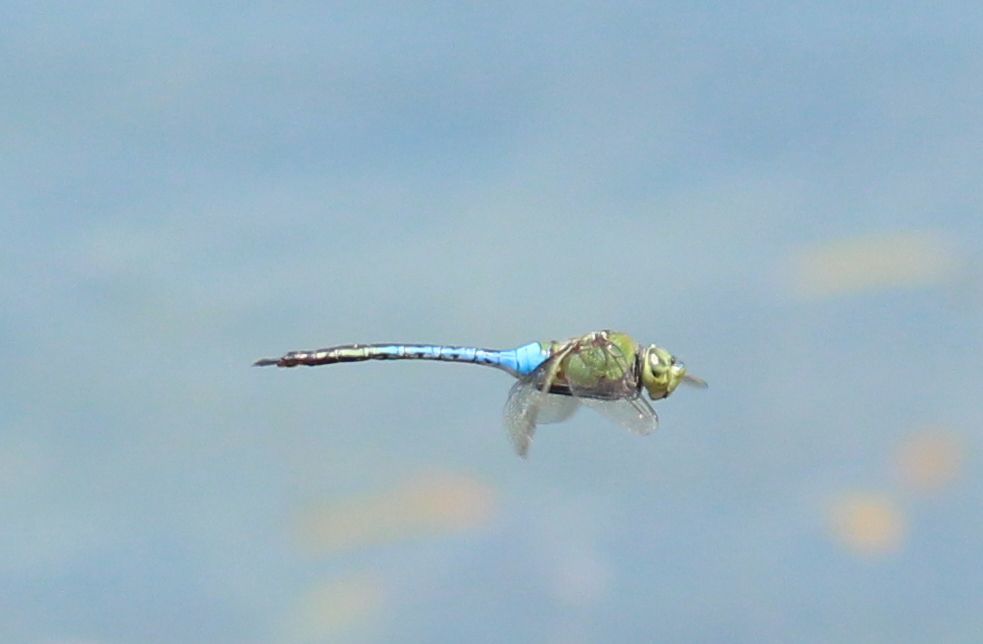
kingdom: Animalia
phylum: Arthropoda
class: Insecta
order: Odonata
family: Aeshnidae
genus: Anax
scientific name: Anax junius
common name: Common green darner
